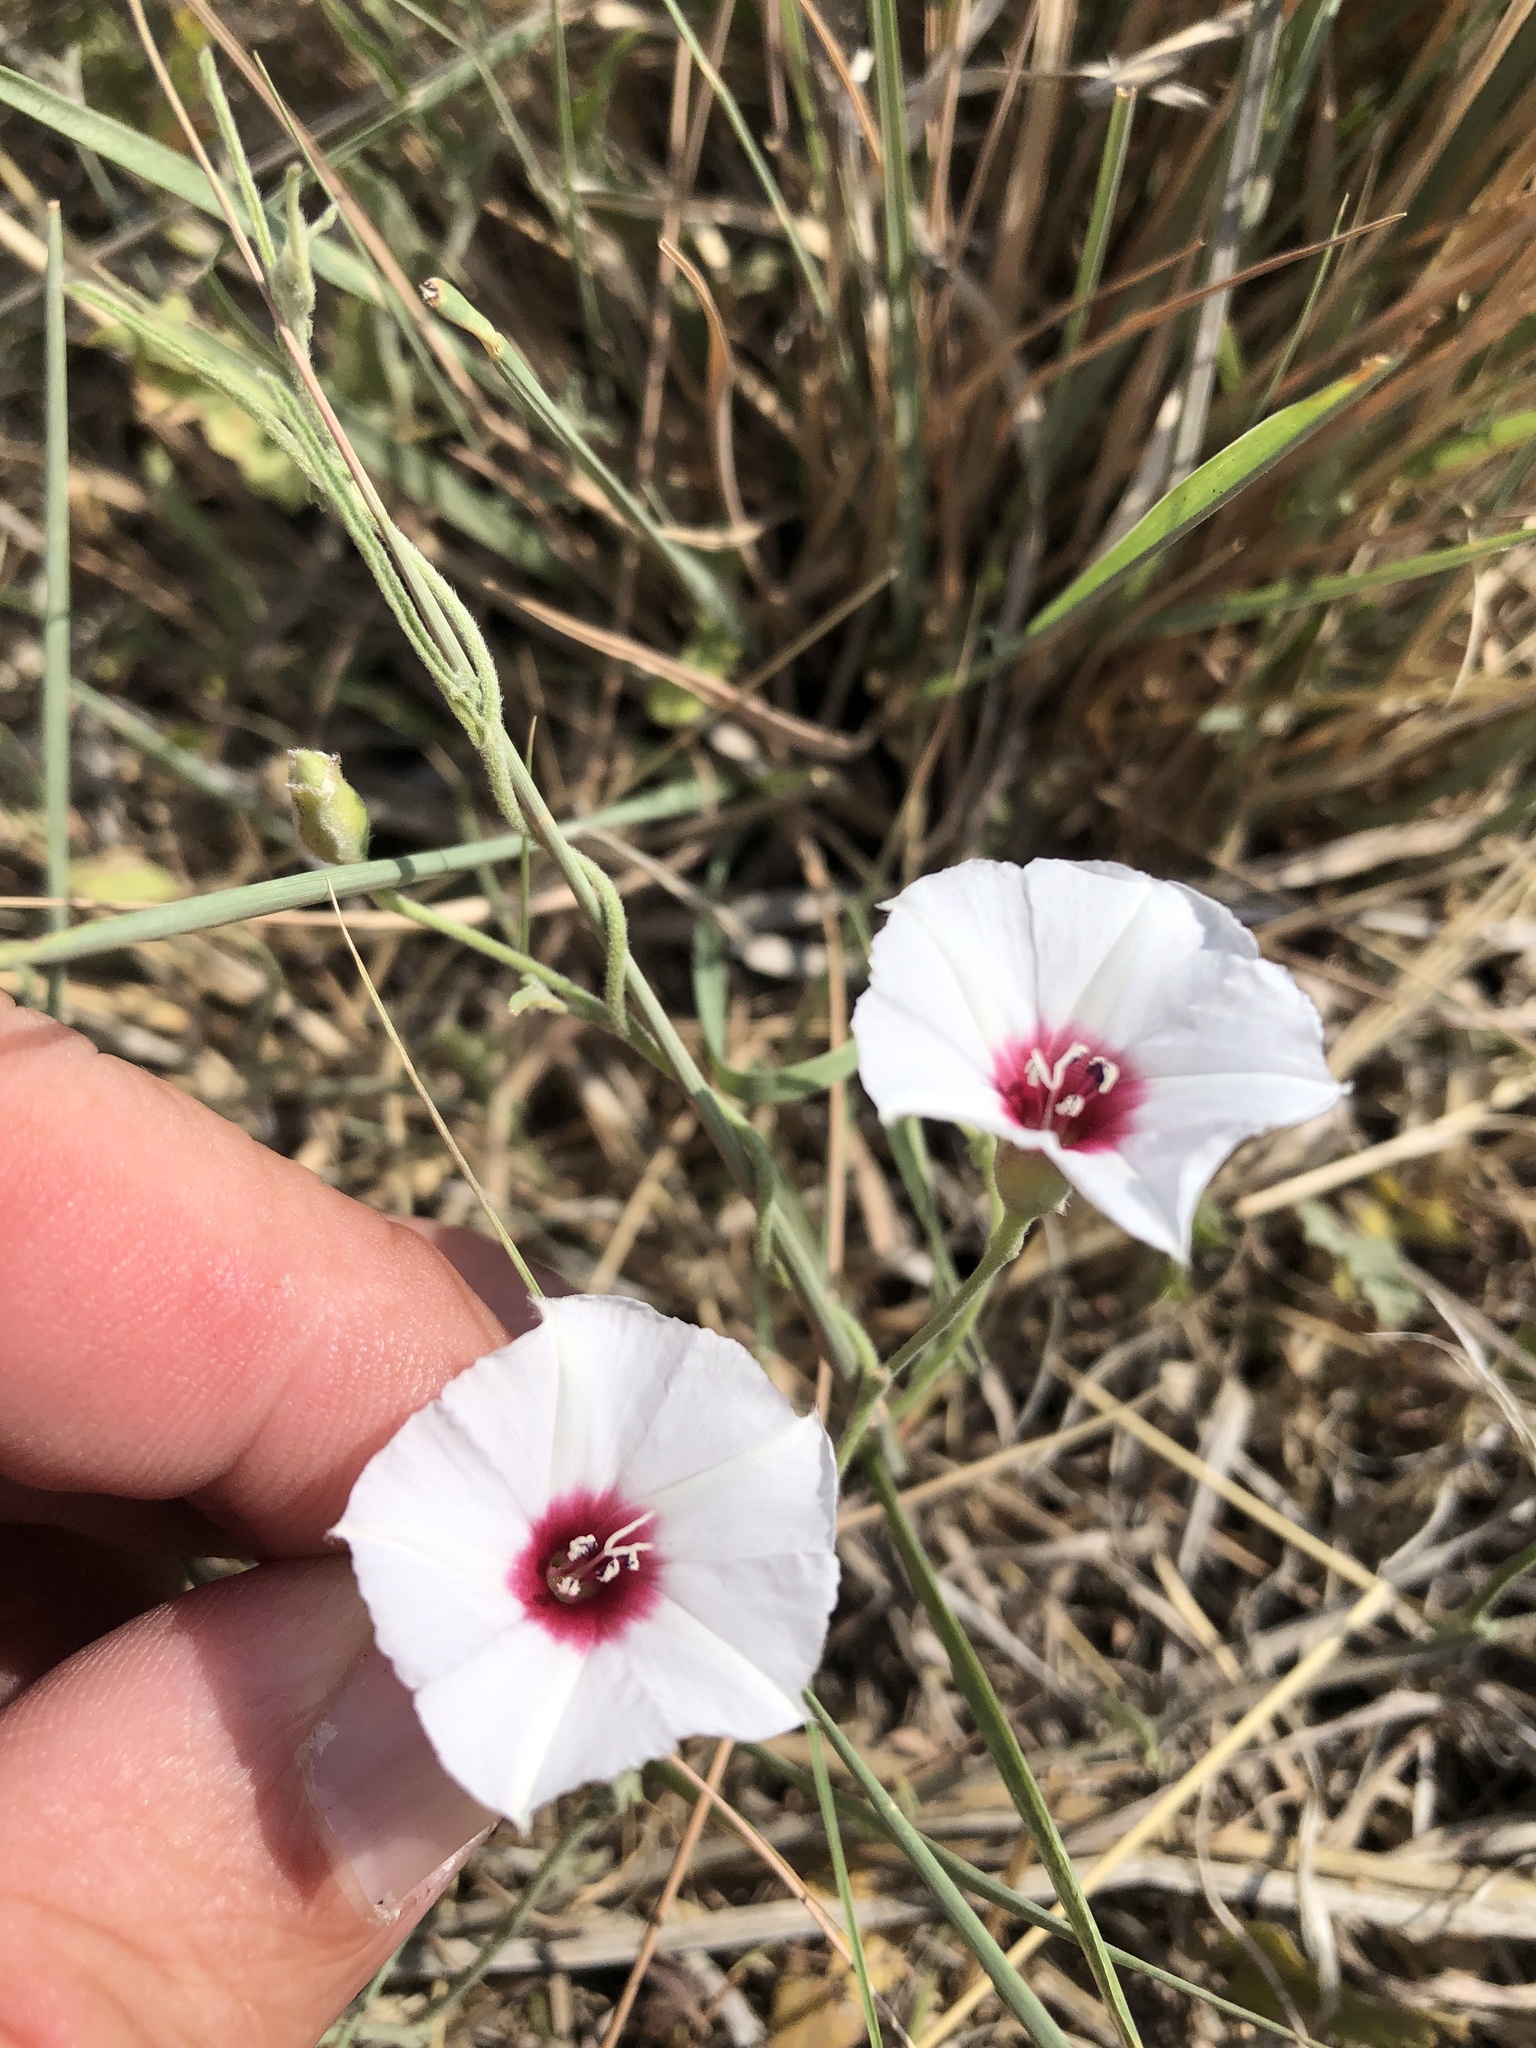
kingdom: Plantae
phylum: Tracheophyta
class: Magnoliopsida
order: Solanales
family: Convolvulaceae
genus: Convolvulus
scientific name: Convolvulus equitans
